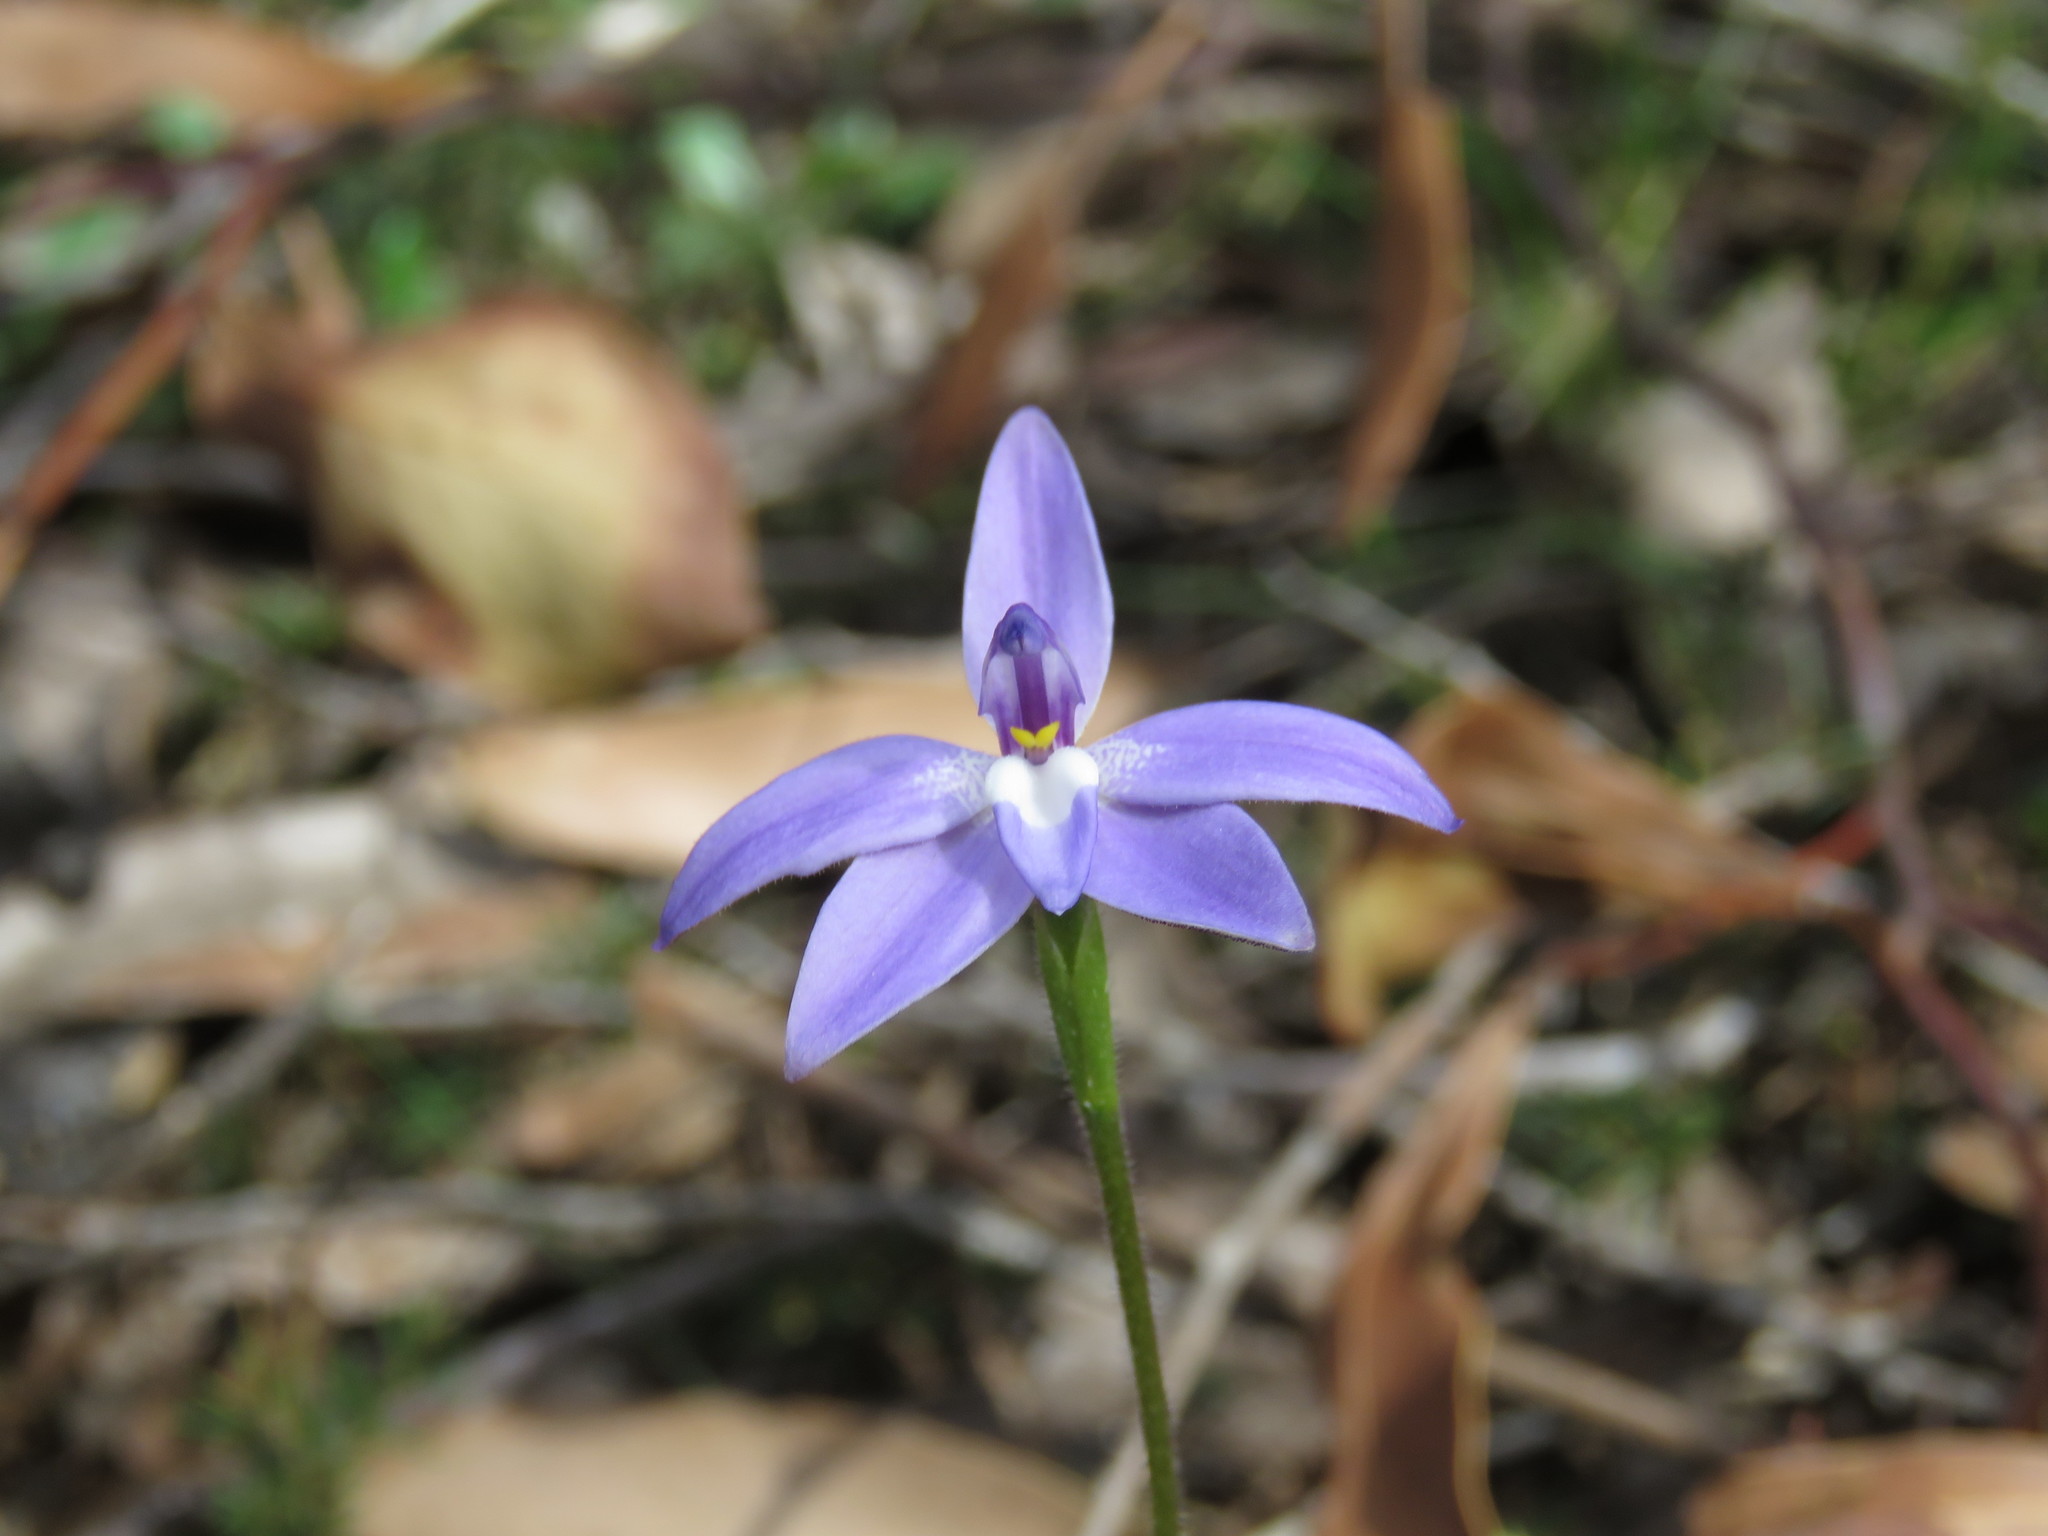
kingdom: Plantae
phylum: Tracheophyta
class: Liliopsida
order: Asparagales
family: Orchidaceae
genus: Caladenia
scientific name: Caladenia major
